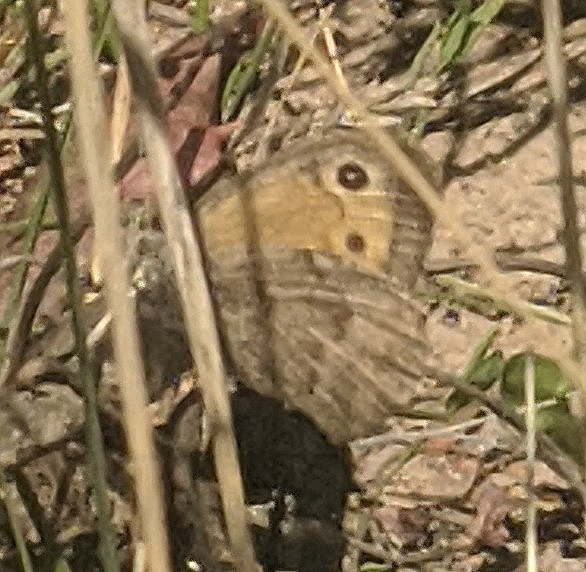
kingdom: Animalia
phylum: Arthropoda
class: Insecta
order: Lepidoptera
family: Nymphalidae
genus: Hyponephele
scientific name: Hyponephele lycaon
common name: Dusky meadow brown
